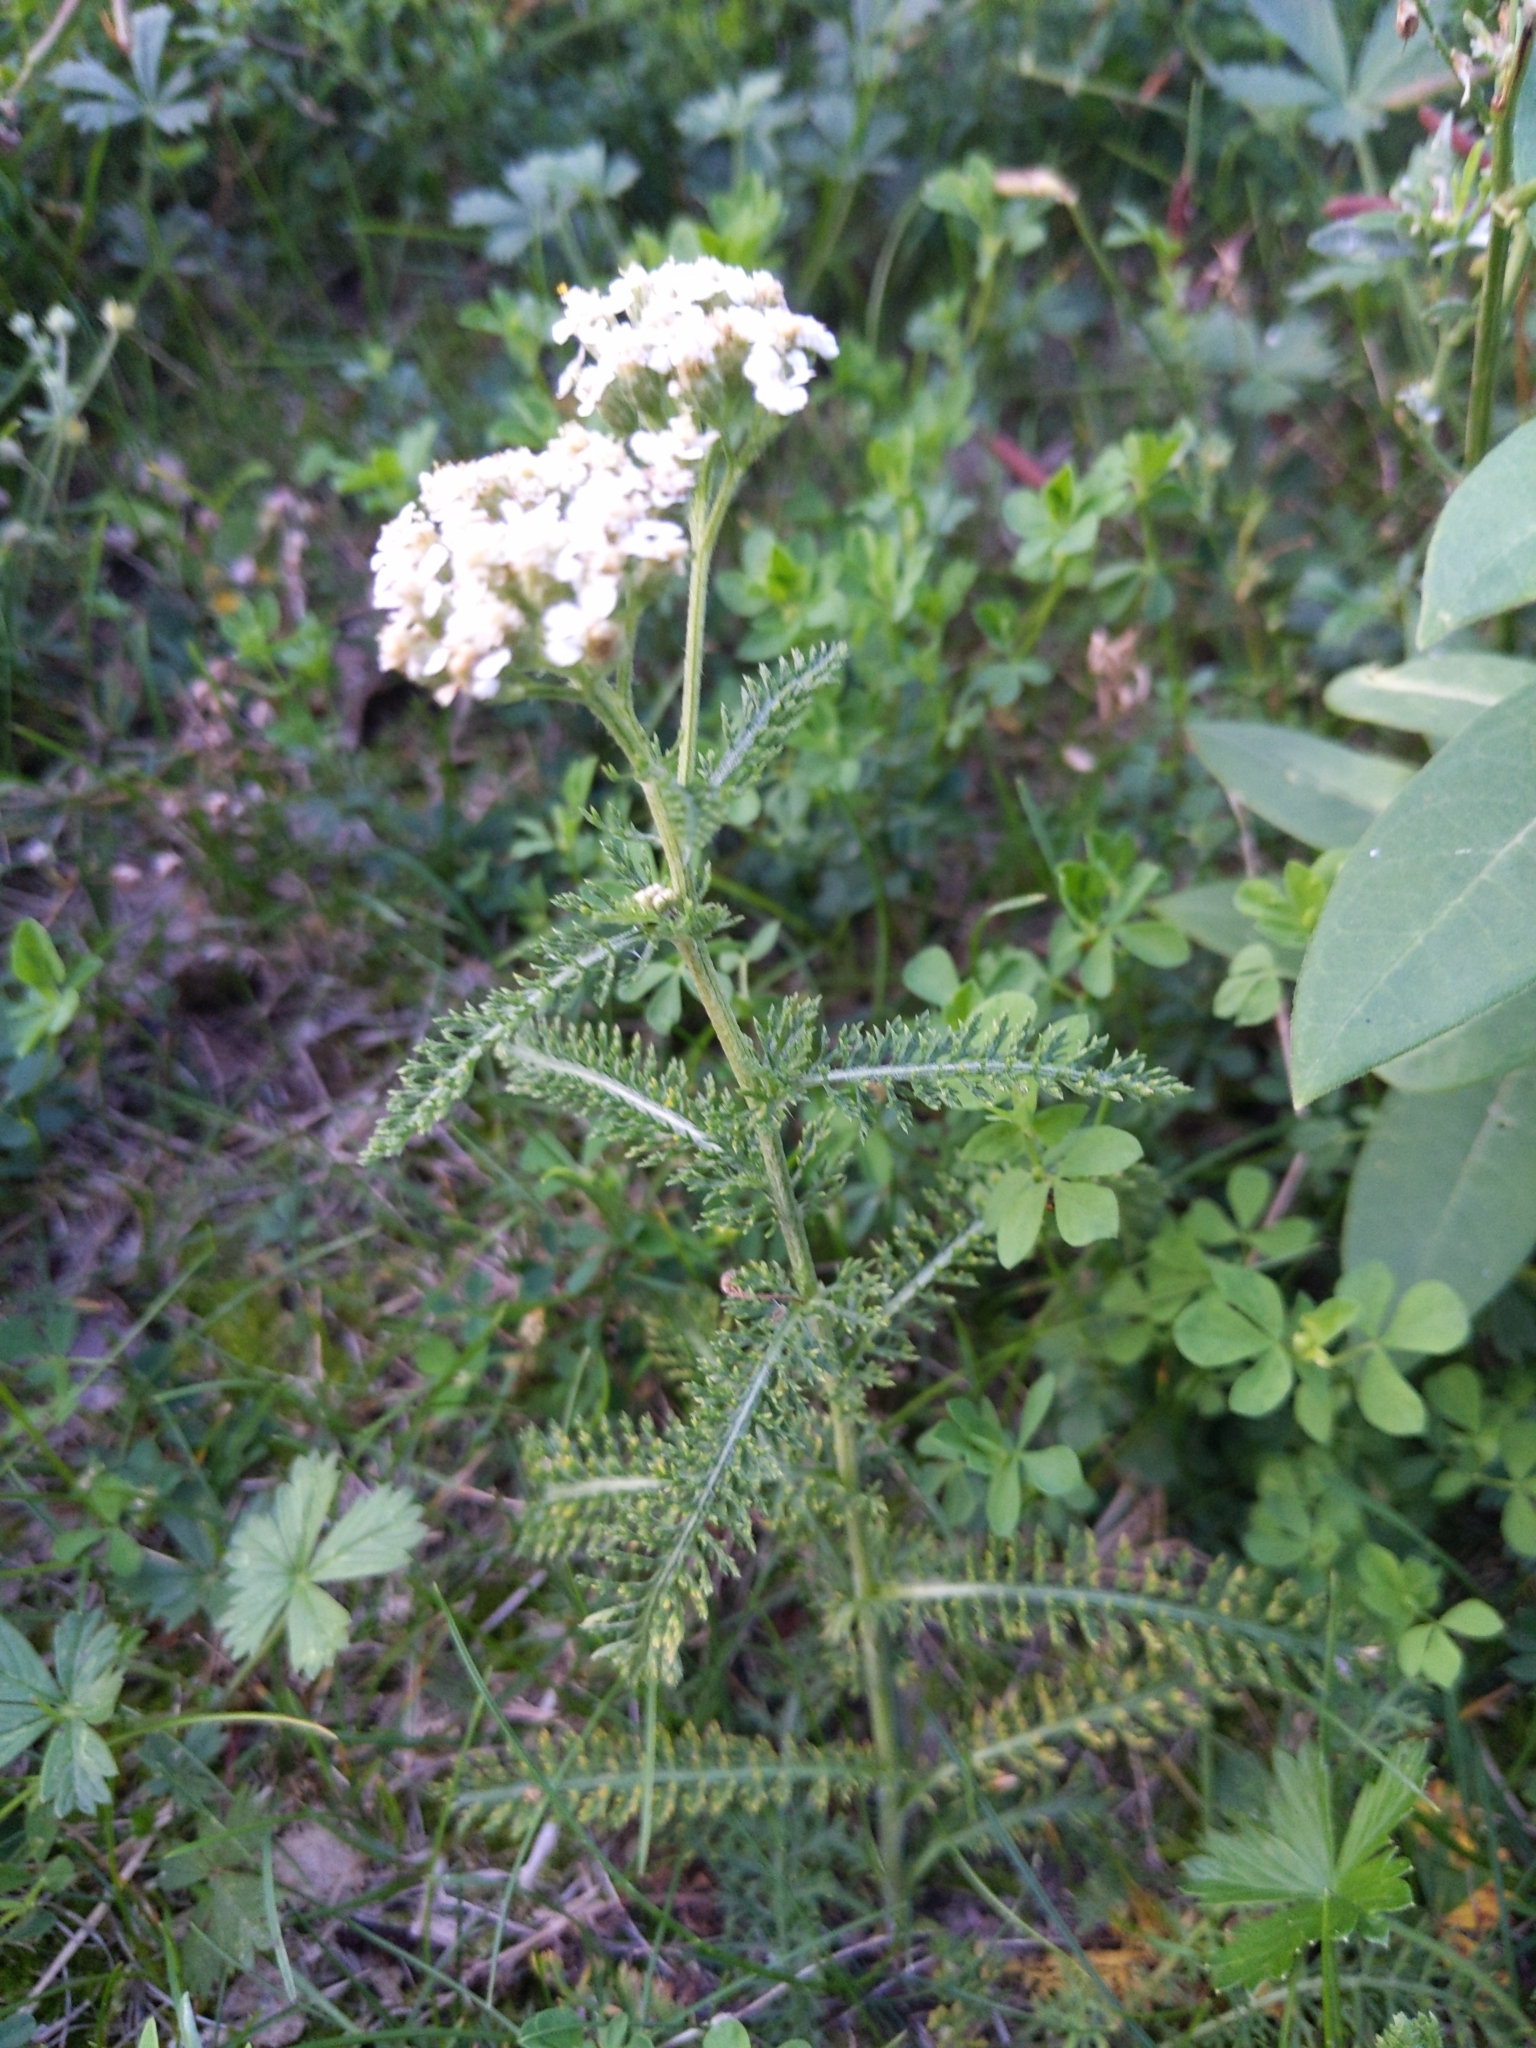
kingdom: Plantae
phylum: Tracheophyta
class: Magnoliopsida
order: Asterales
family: Asteraceae
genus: Achillea
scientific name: Achillea millefolium
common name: Yarrow
